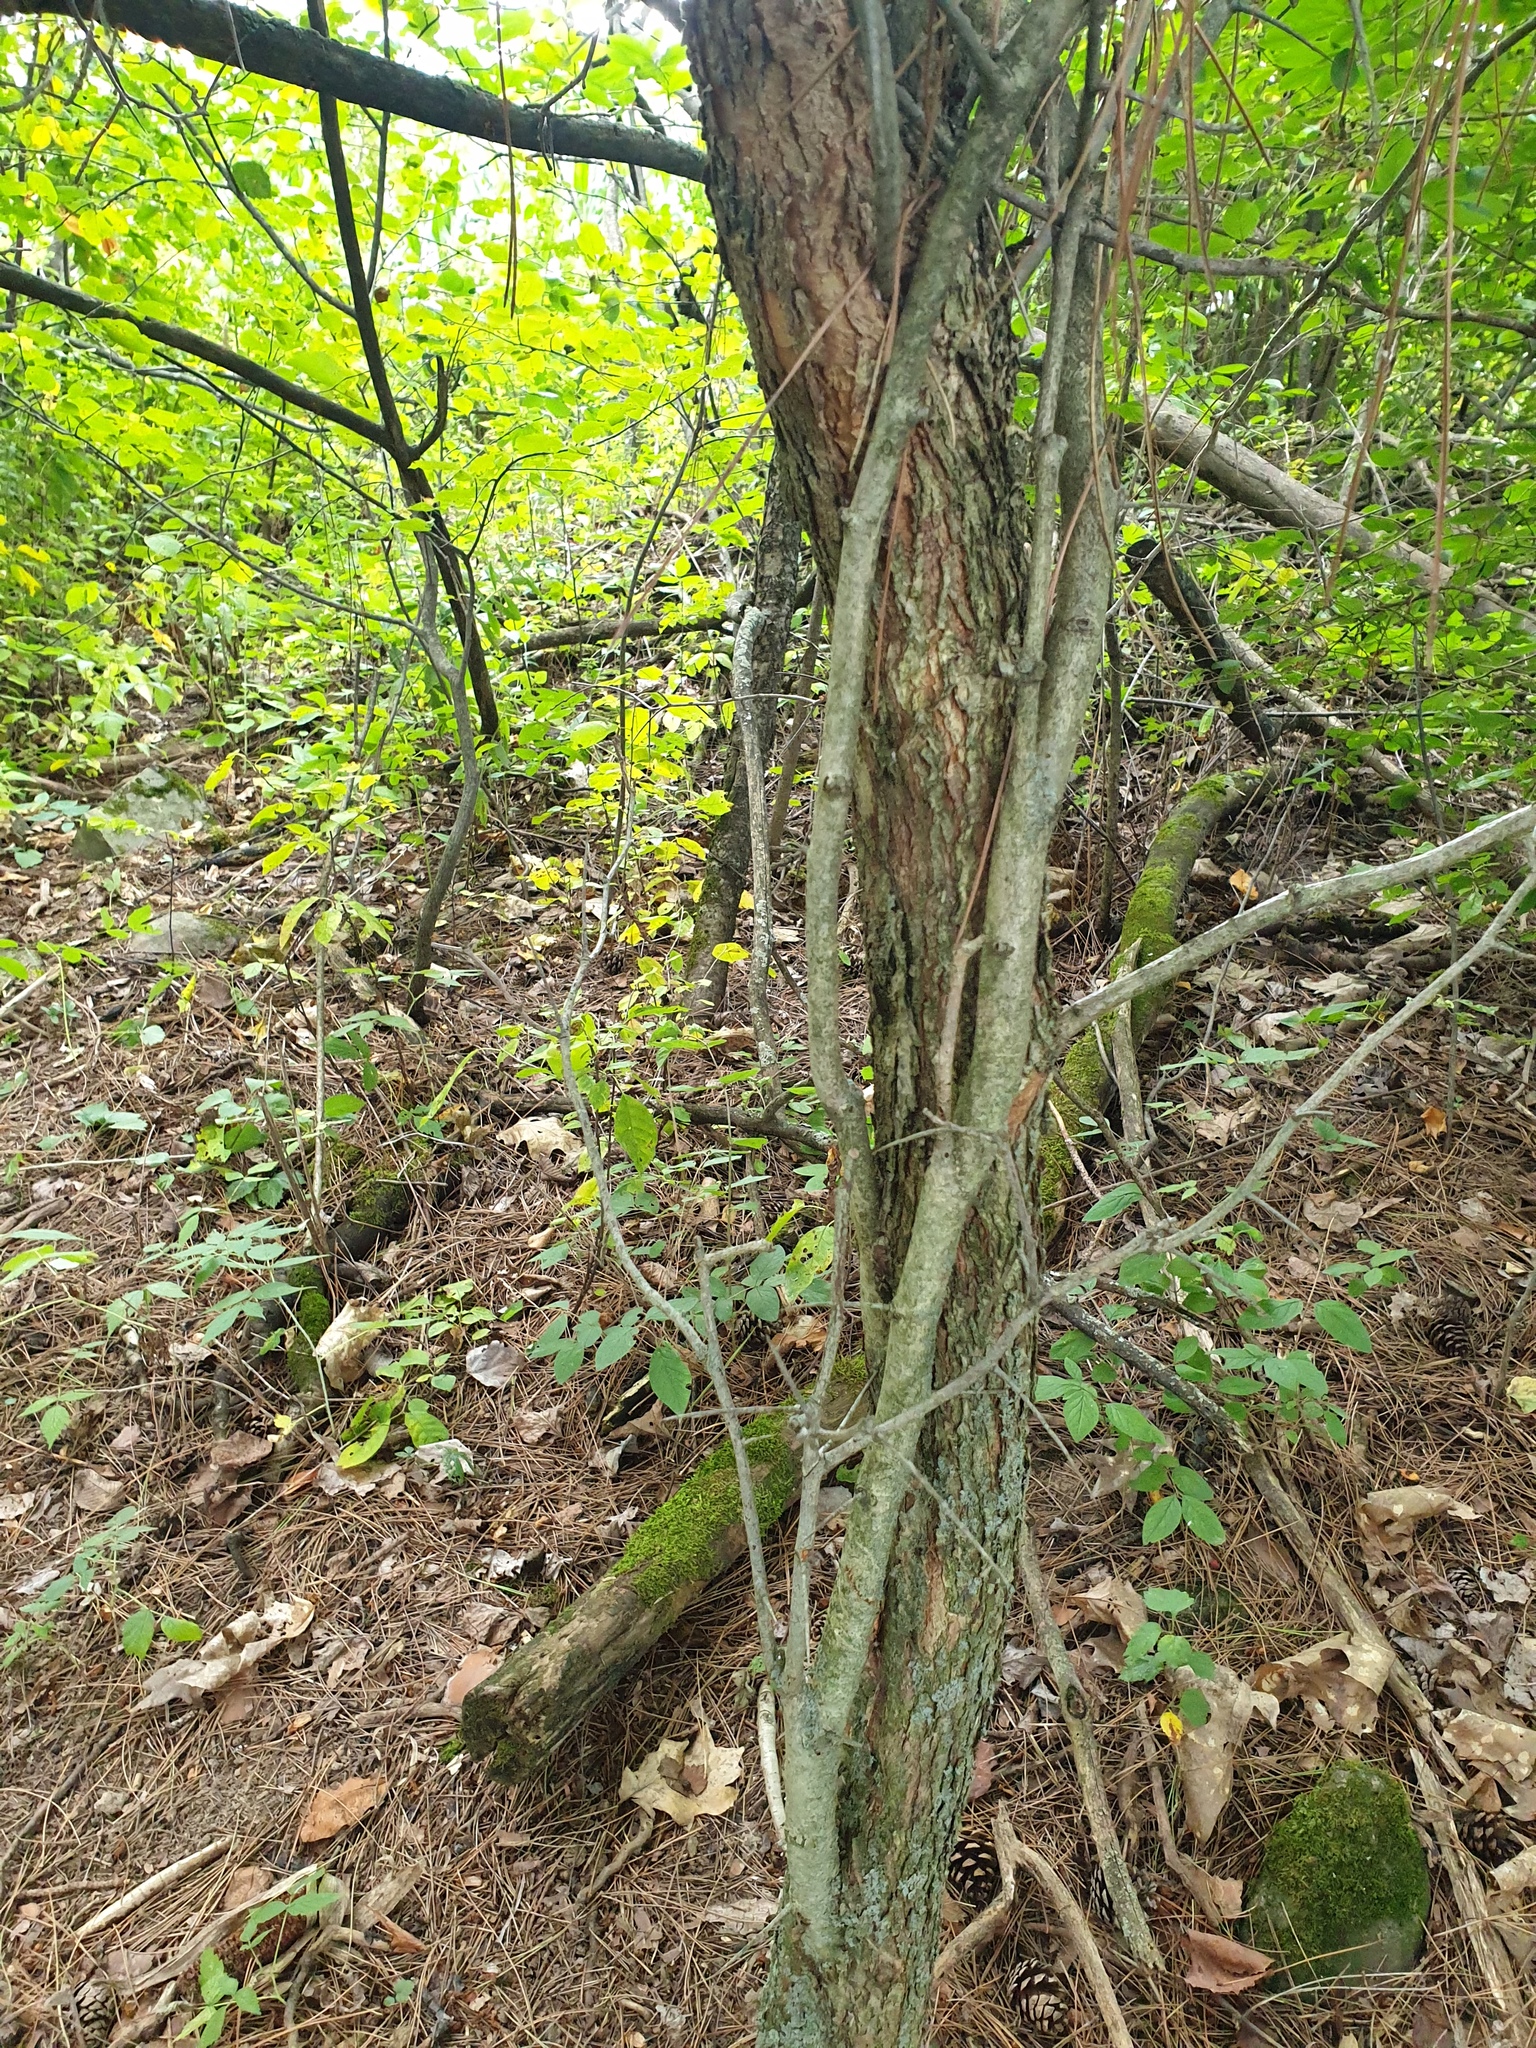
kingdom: Plantae
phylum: Tracheophyta
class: Magnoliopsida
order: Rosales
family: Rosaceae
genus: Crataegus
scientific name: Crataegus scabrida
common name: Rough hawthorn
